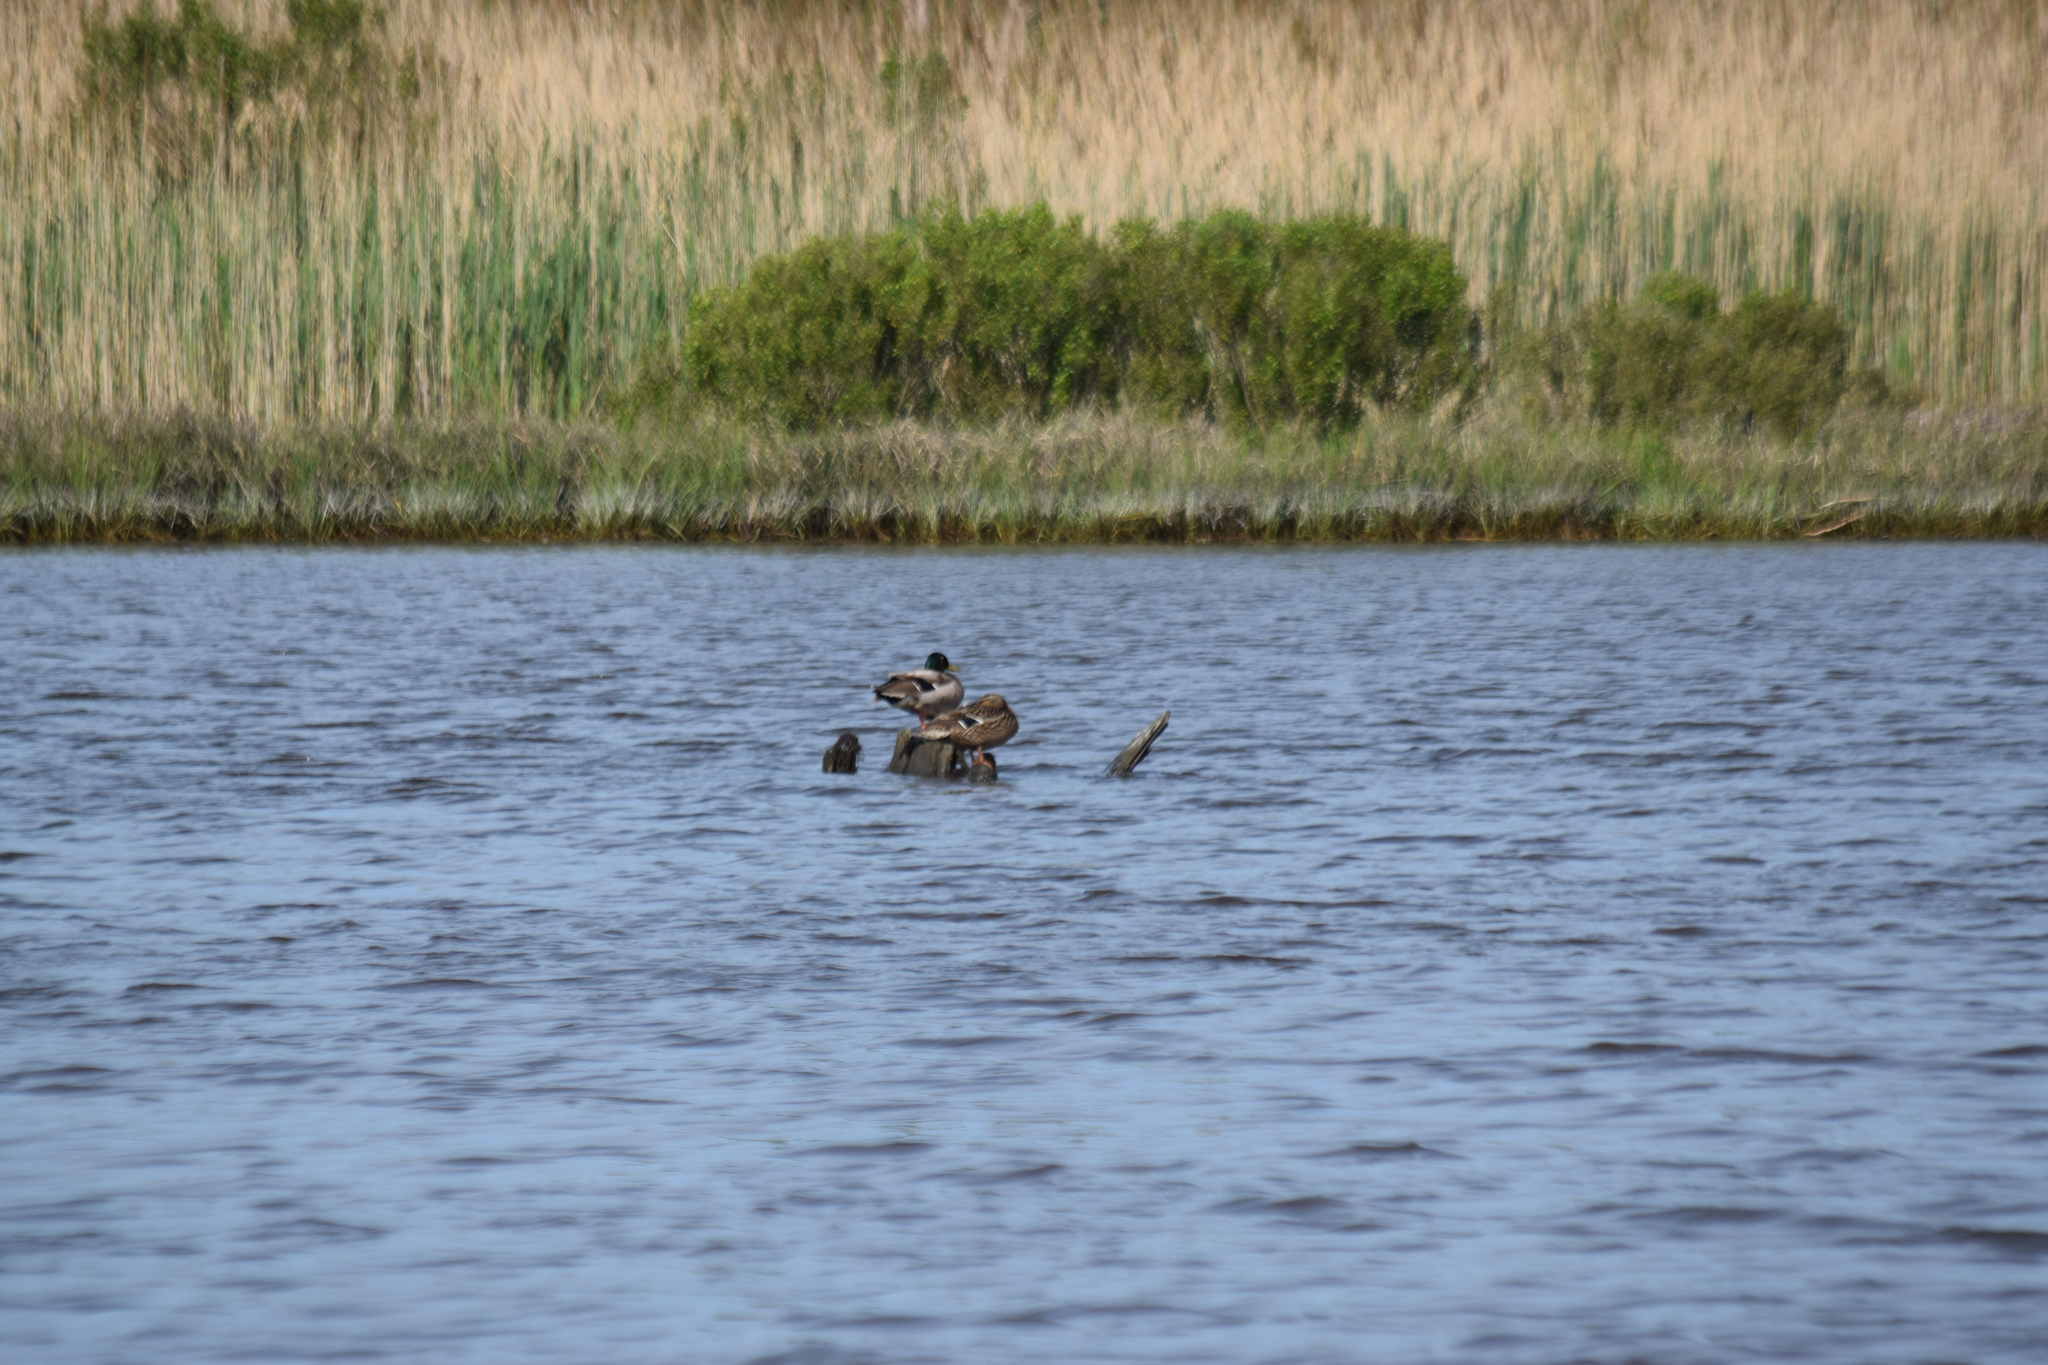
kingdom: Animalia
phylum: Chordata
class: Aves
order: Anseriformes
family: Anatidae
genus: Anas
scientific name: Anas platyrhynchos
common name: Mallard
